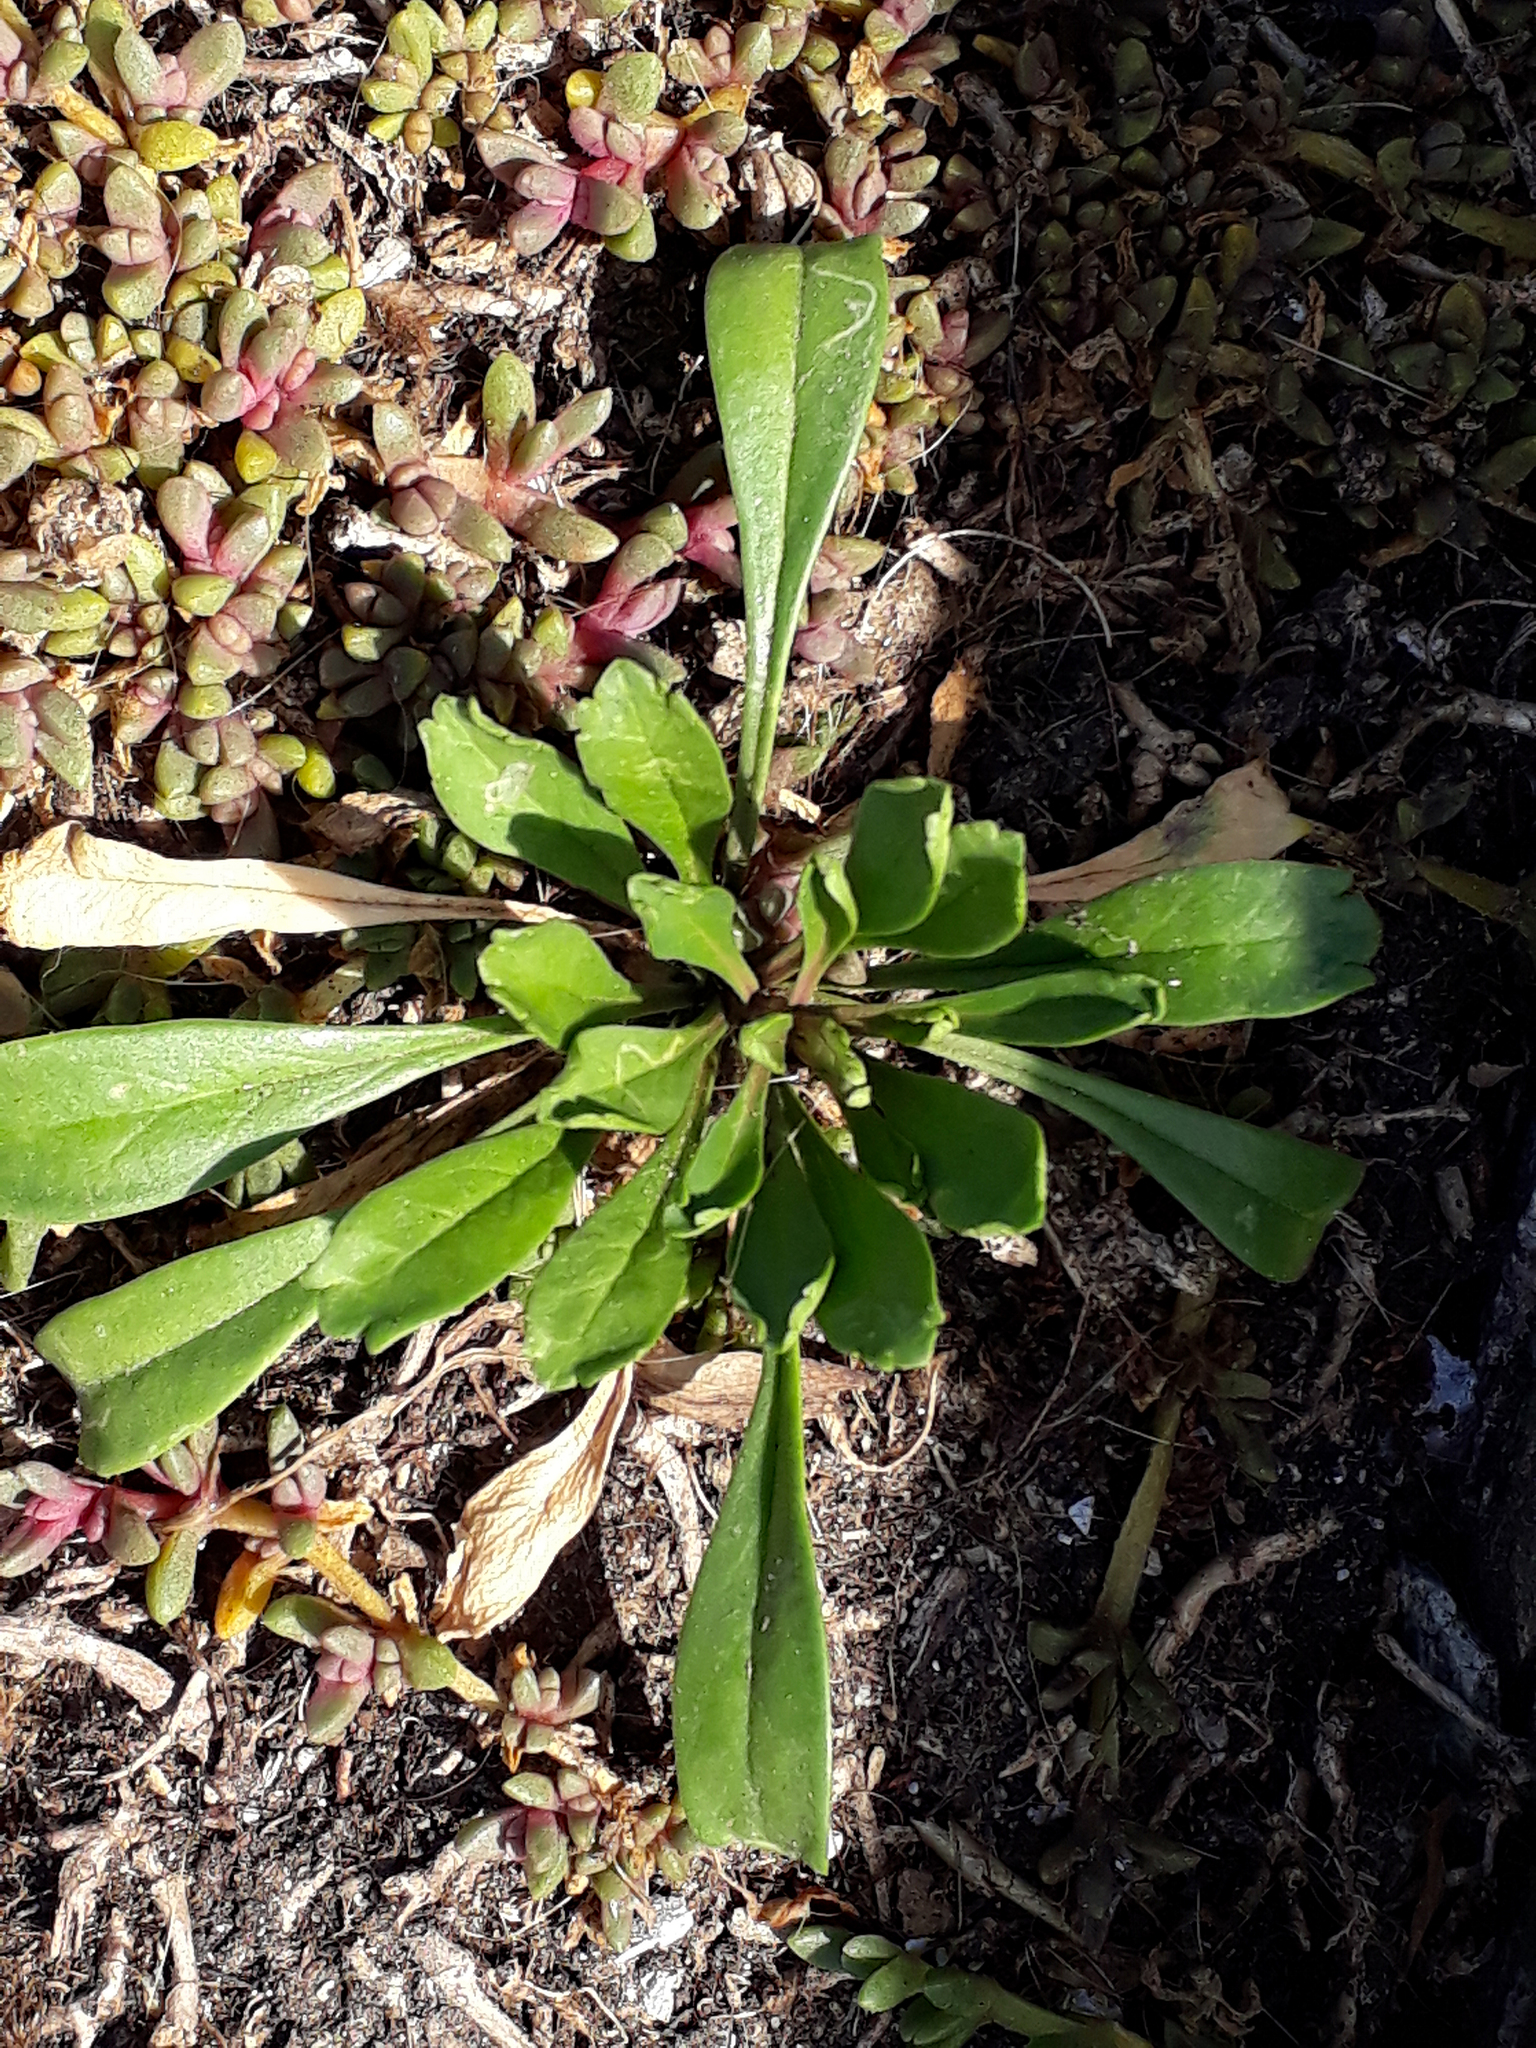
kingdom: Plantae
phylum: Tracheophyta
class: Magnoliopsida
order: Brassicales
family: Brassicaceae
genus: Lepidium
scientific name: Lepidium oligodontum
